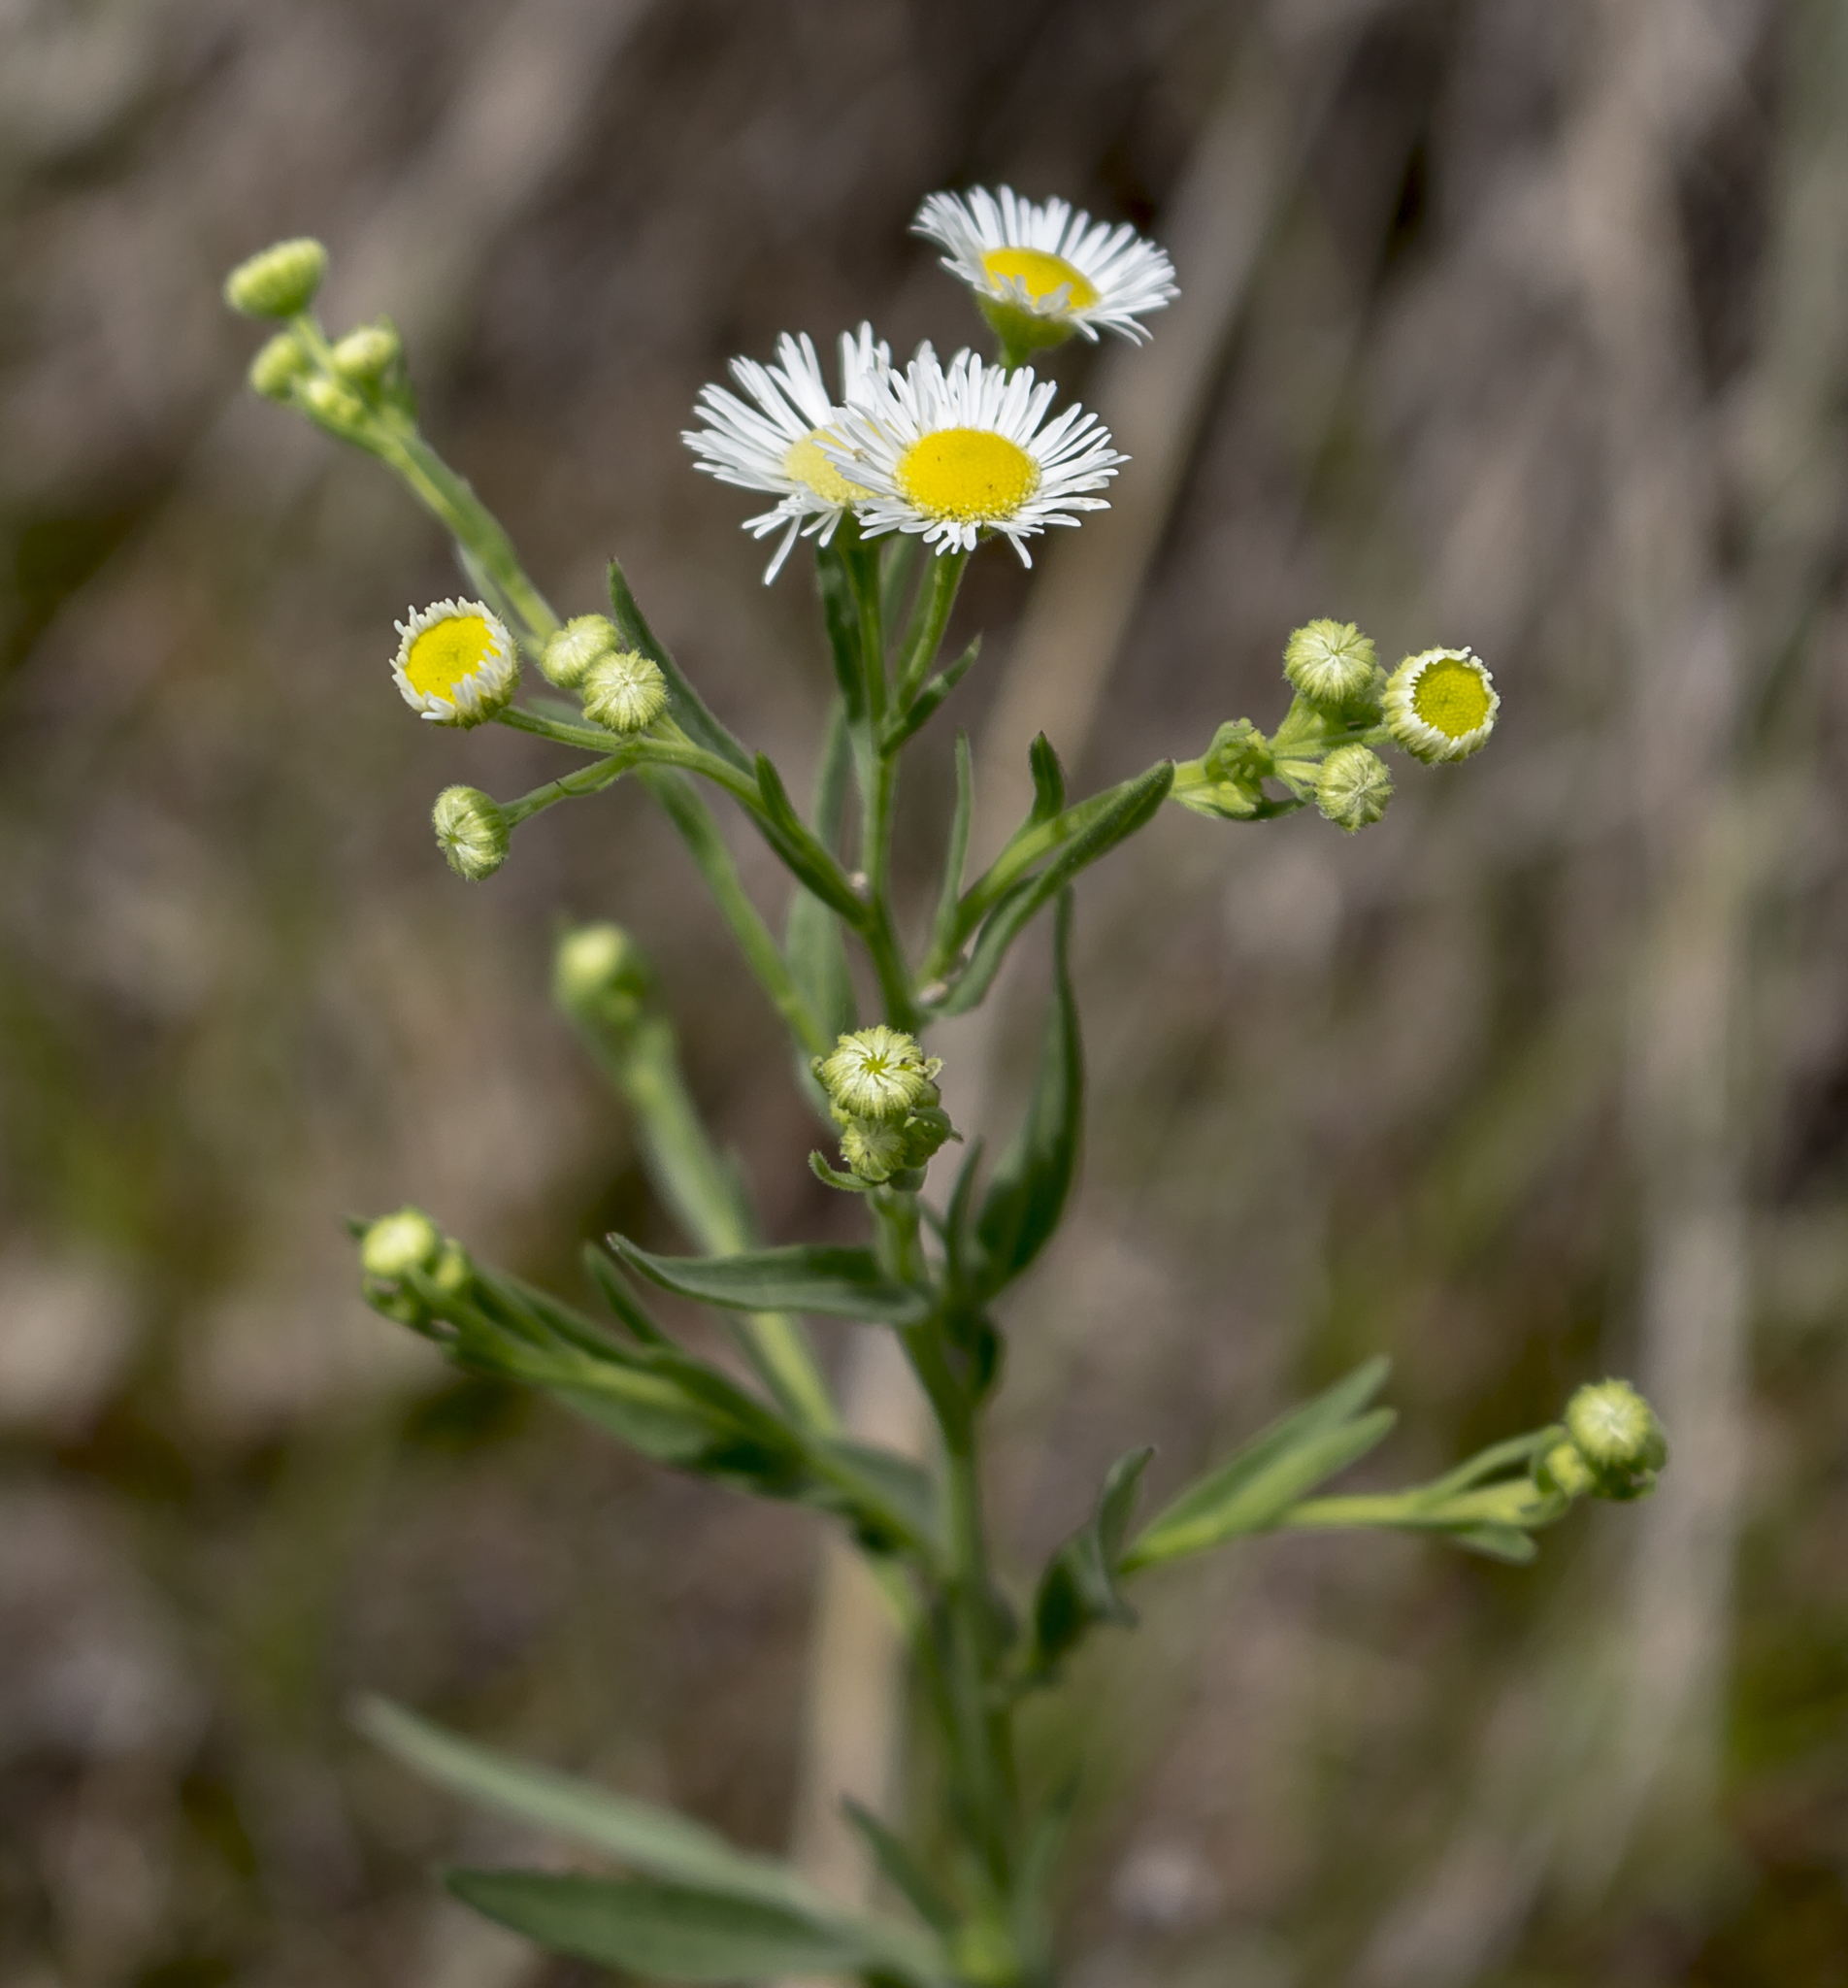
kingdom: Plantae
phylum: Tracheophyta
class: Magnoliopsida
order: Asterales
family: Asteraceae
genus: Erigeron
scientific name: Erigeron annuus
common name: Tall fleabane
